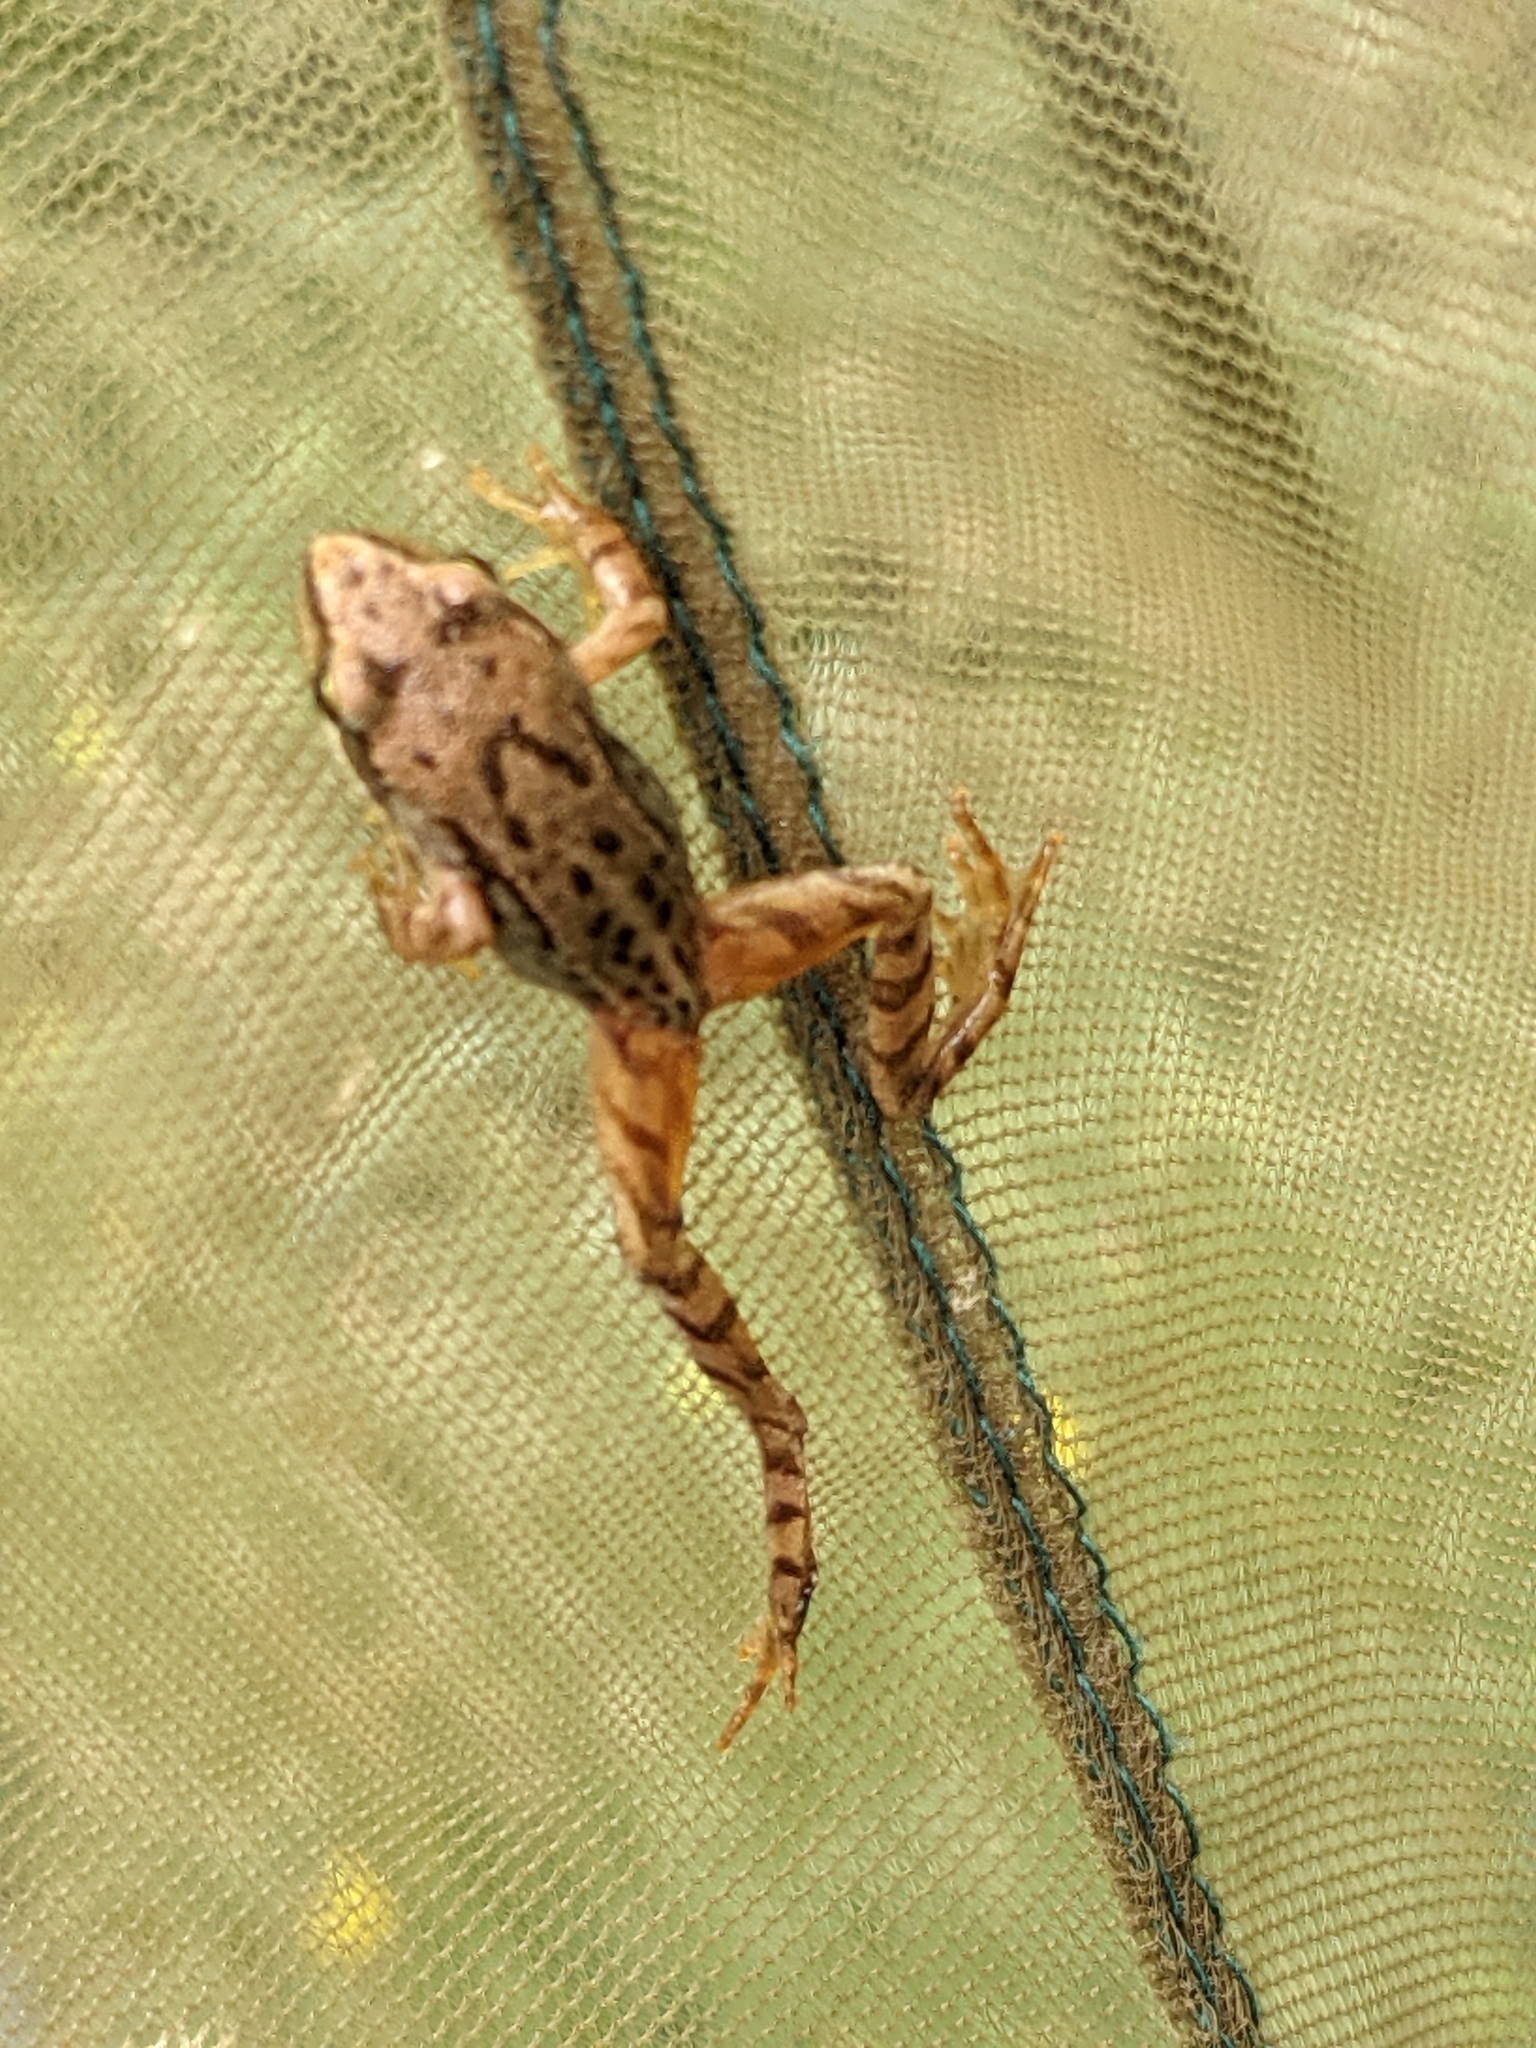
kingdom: Animalia
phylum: Chordata
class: Amphibia
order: Anura
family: Ranidae
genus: Rana
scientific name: Rana temporaria
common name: Common frog
